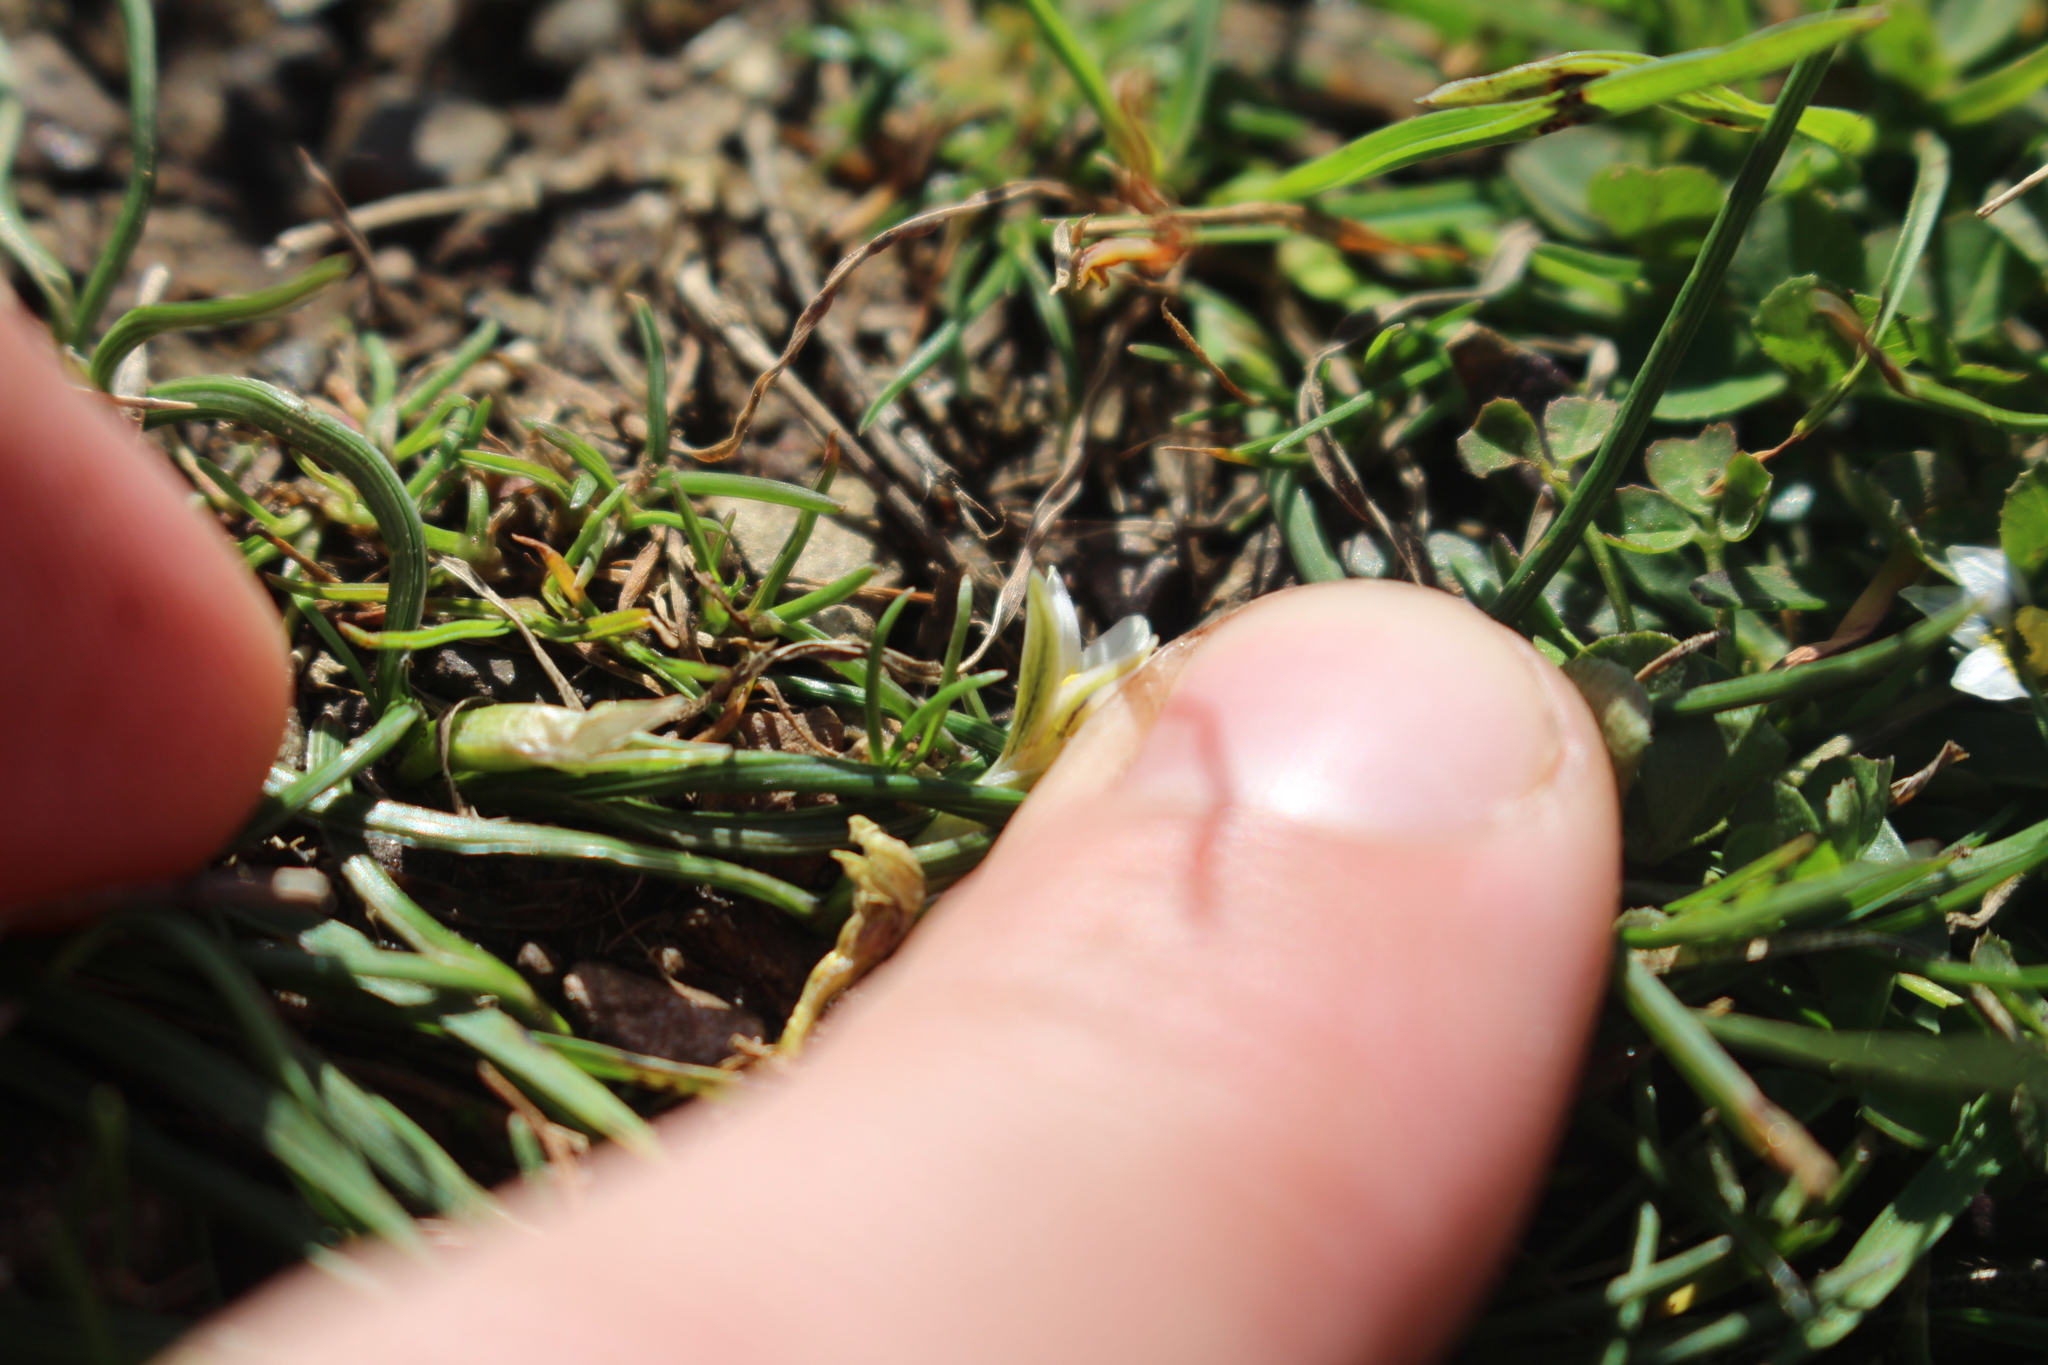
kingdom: Plantae
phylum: Tracheophyta
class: Liliopsida
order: Asparagales
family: Iridaceae
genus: Romulea
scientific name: Romulea columnae
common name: Sand-crocus
